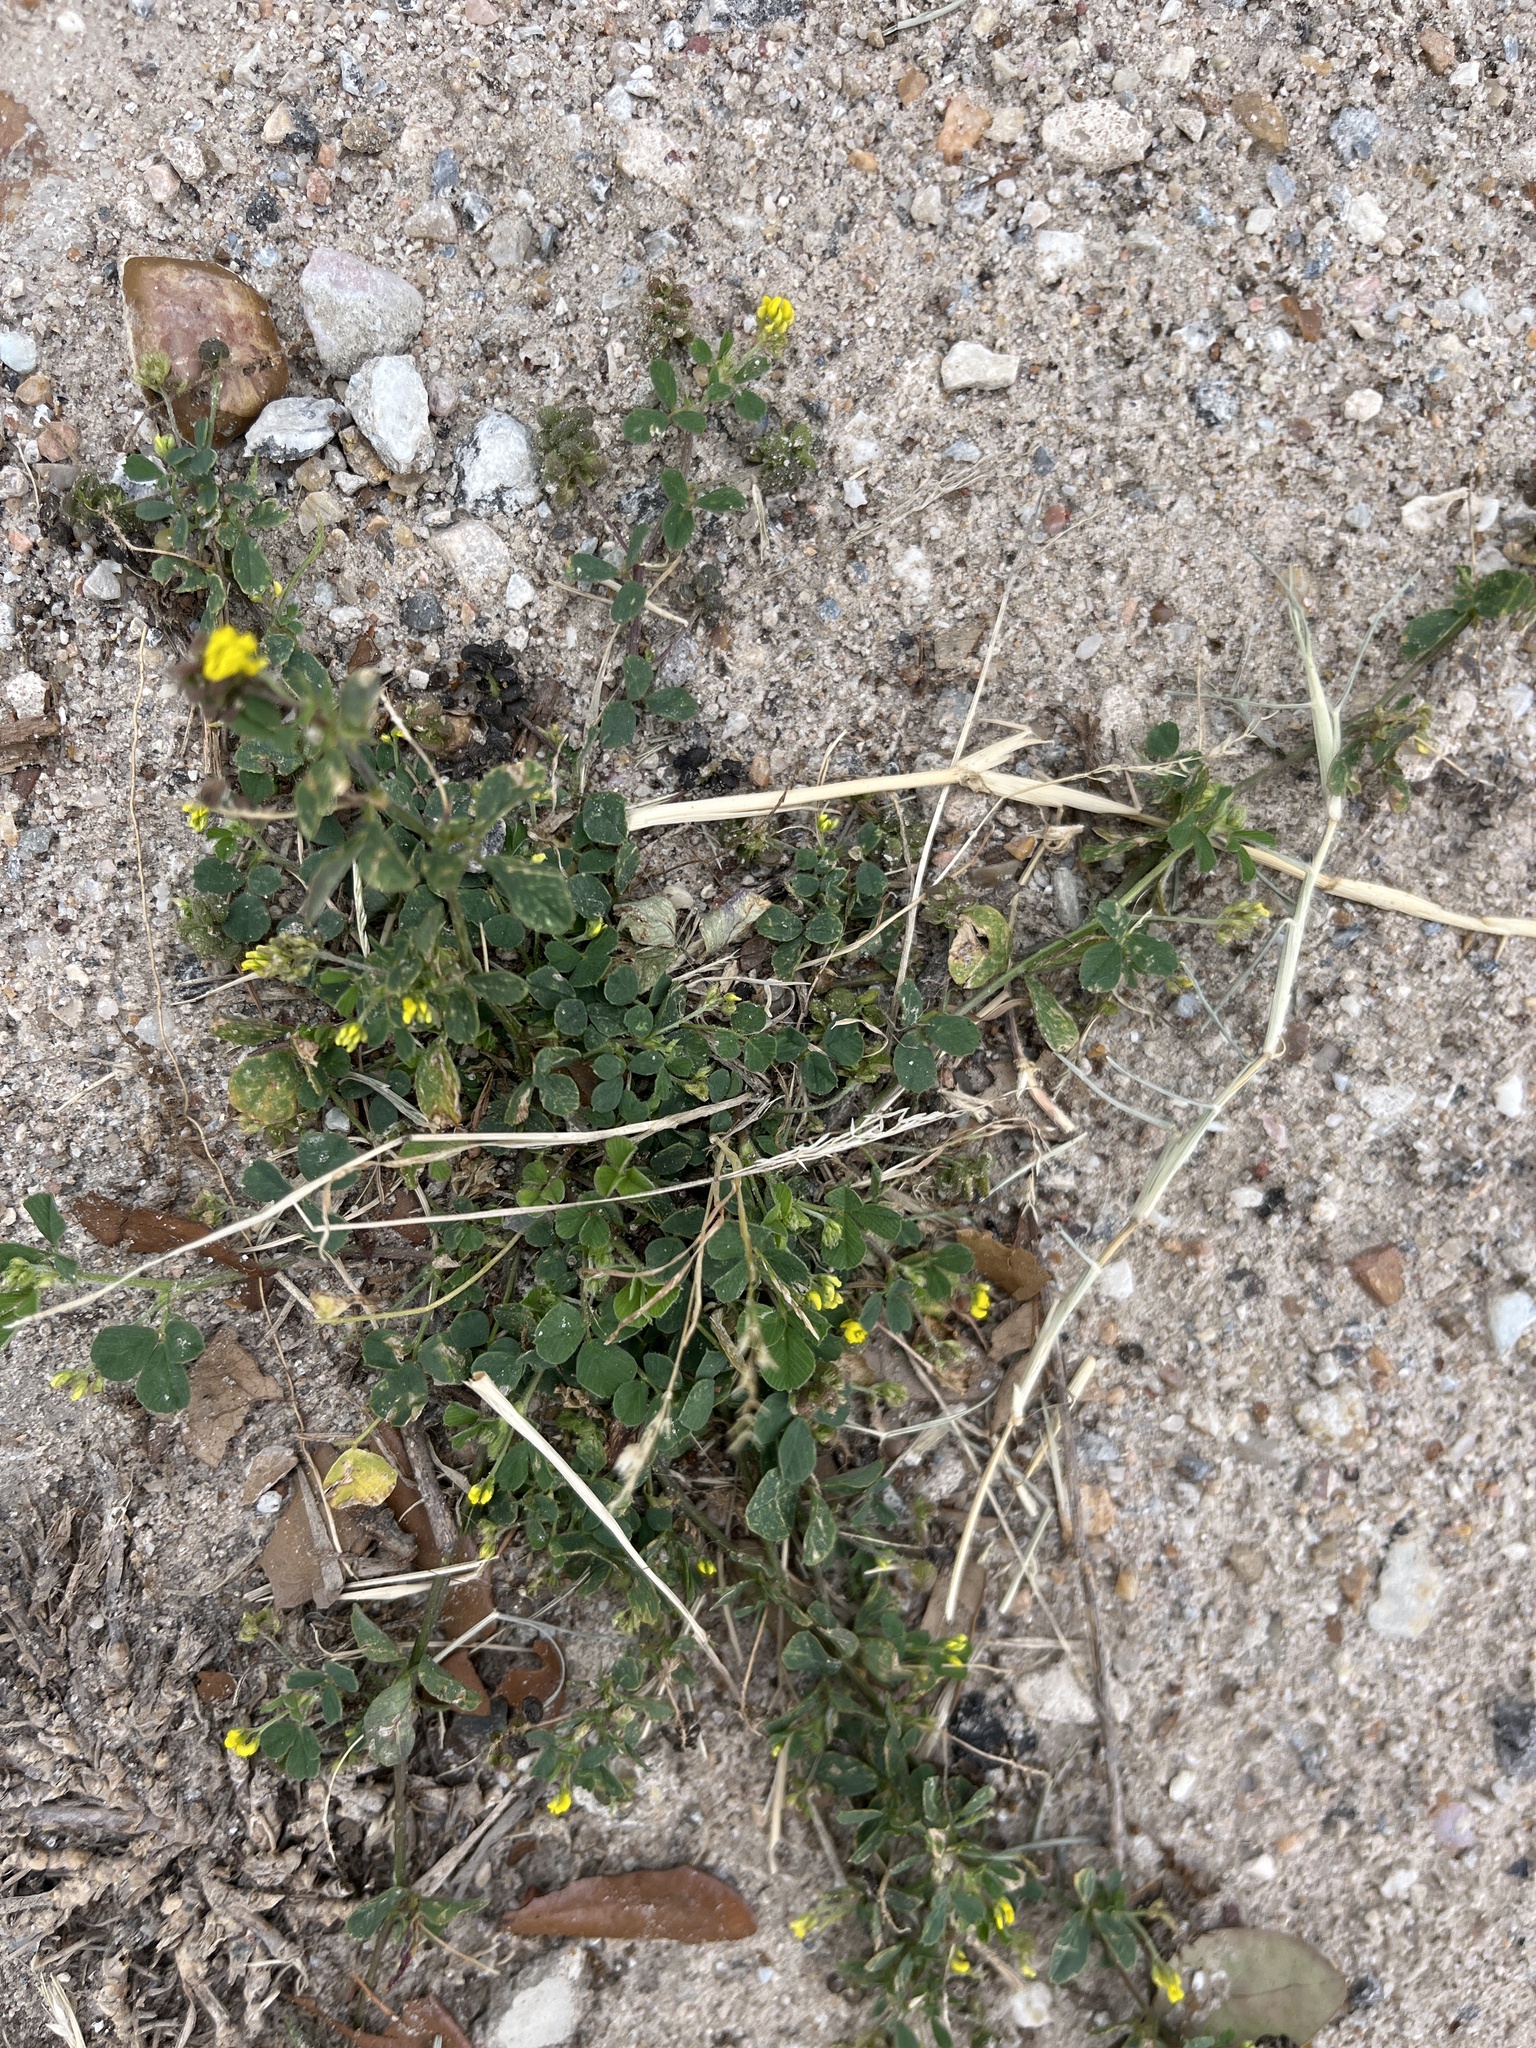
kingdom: Plantae
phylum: Tracheophyta
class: Magnoliopsida
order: Fabales
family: Fabaceae
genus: Medicago
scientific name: Medicago lupulina
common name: Black medick
